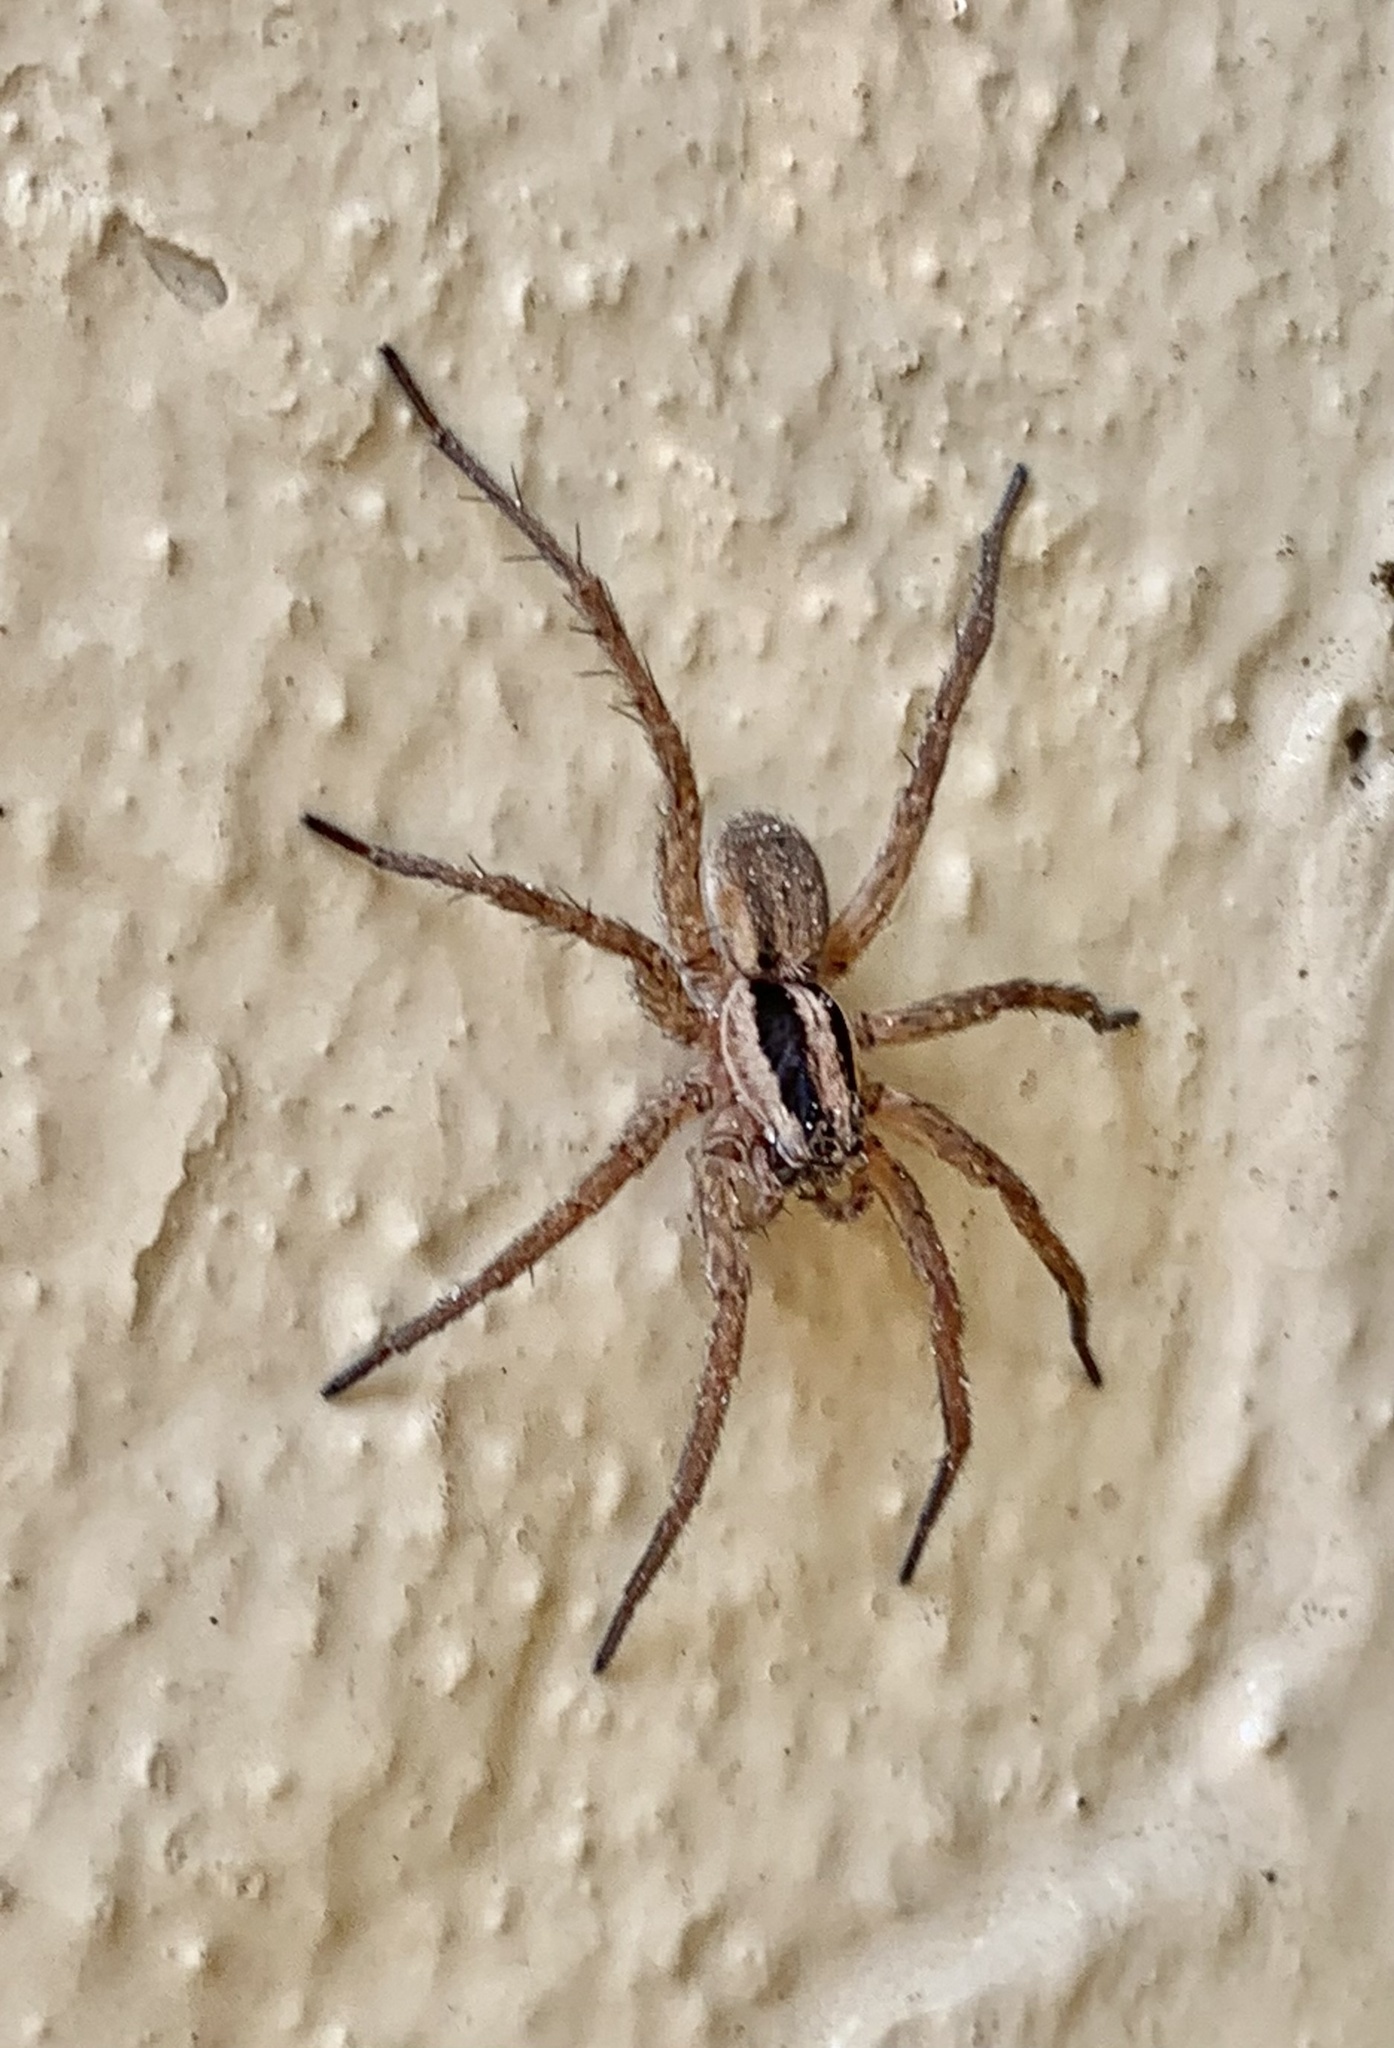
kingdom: Animalia
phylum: Arthropoda
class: Arachnida
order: Araneae
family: Lycosidae
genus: Hogna
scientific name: Hogna graeca
